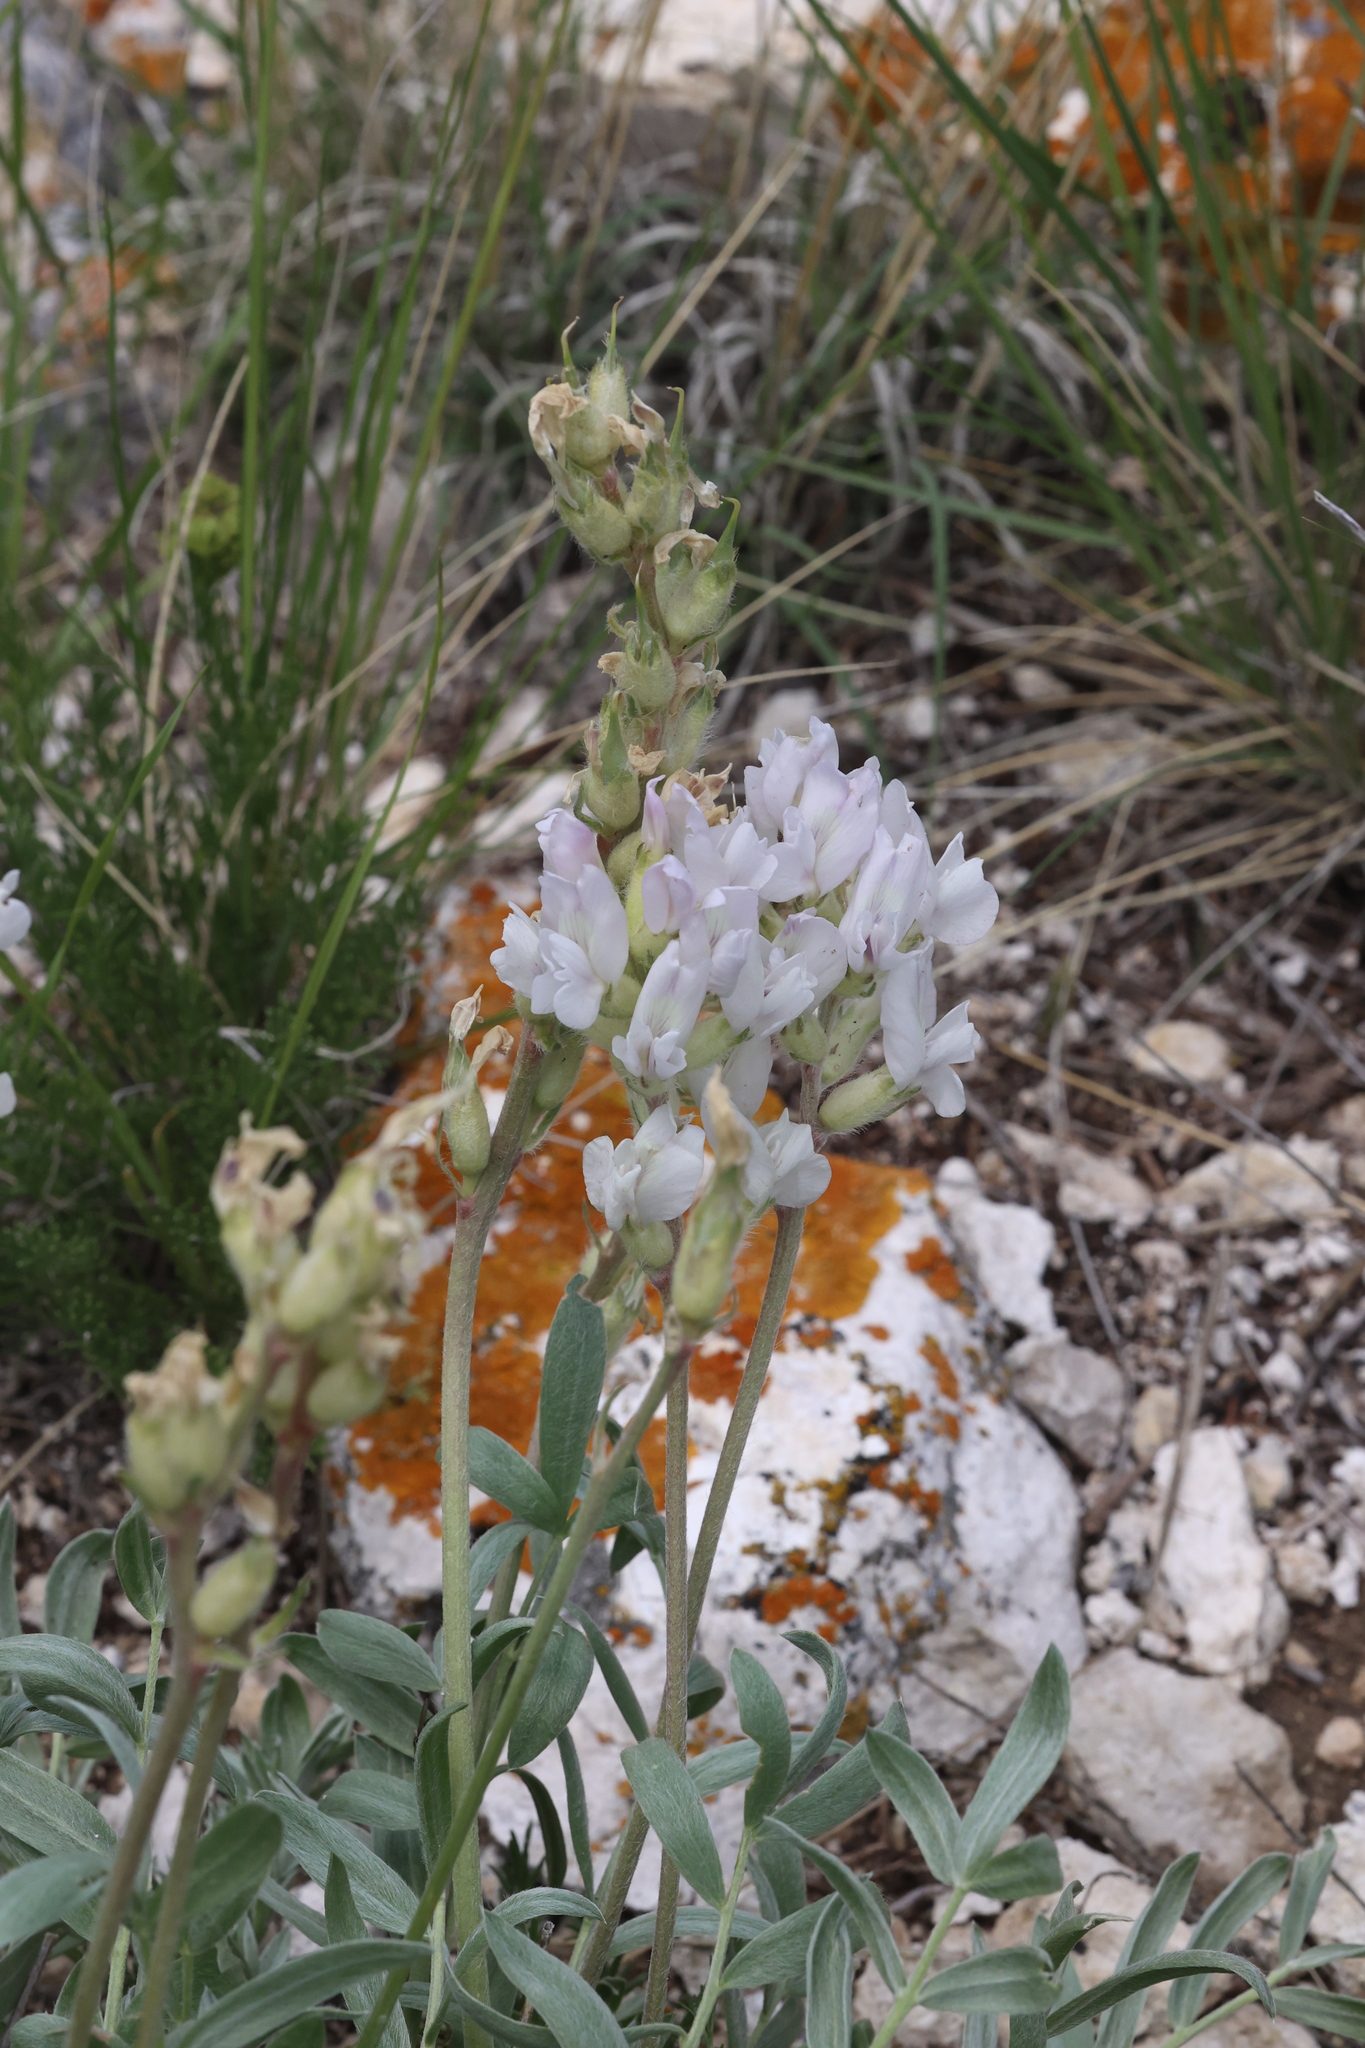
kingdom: Plantae
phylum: Tracheophyta
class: Magnoliopsida
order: Fabales
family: Fabaceae
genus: Oxytropis
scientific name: Oxytropis sericea
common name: Silky locoweed
